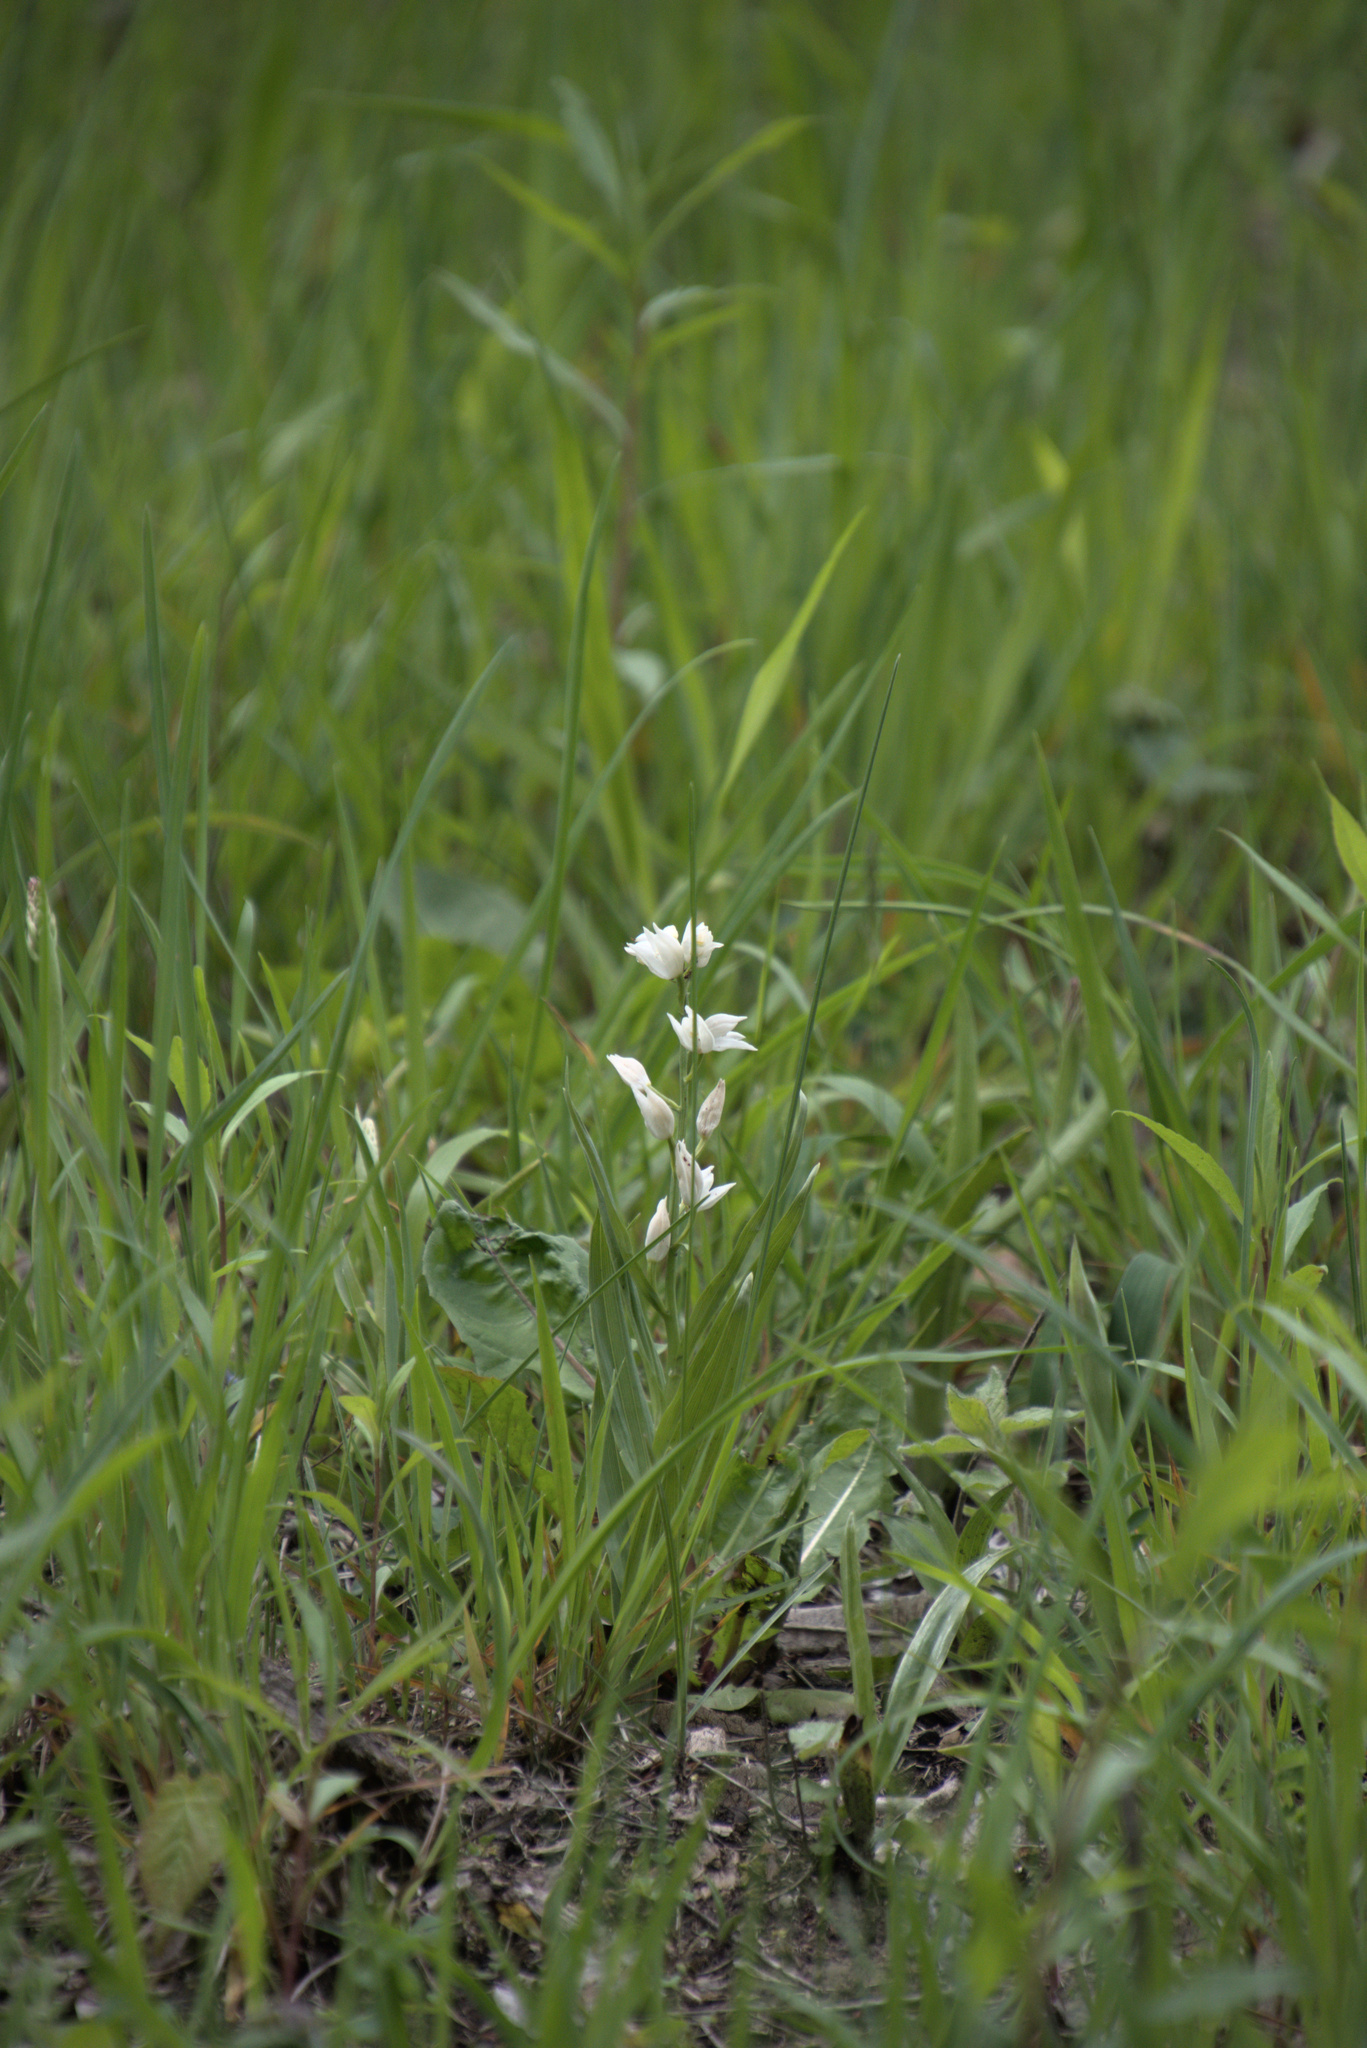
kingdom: Plantae
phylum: Tracheophyta
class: Liliopsida
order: Asparagales
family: Orchidaceae
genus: Cephalanthera
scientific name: Cephalanthera longifolia
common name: Narrow-leaved helleborine
